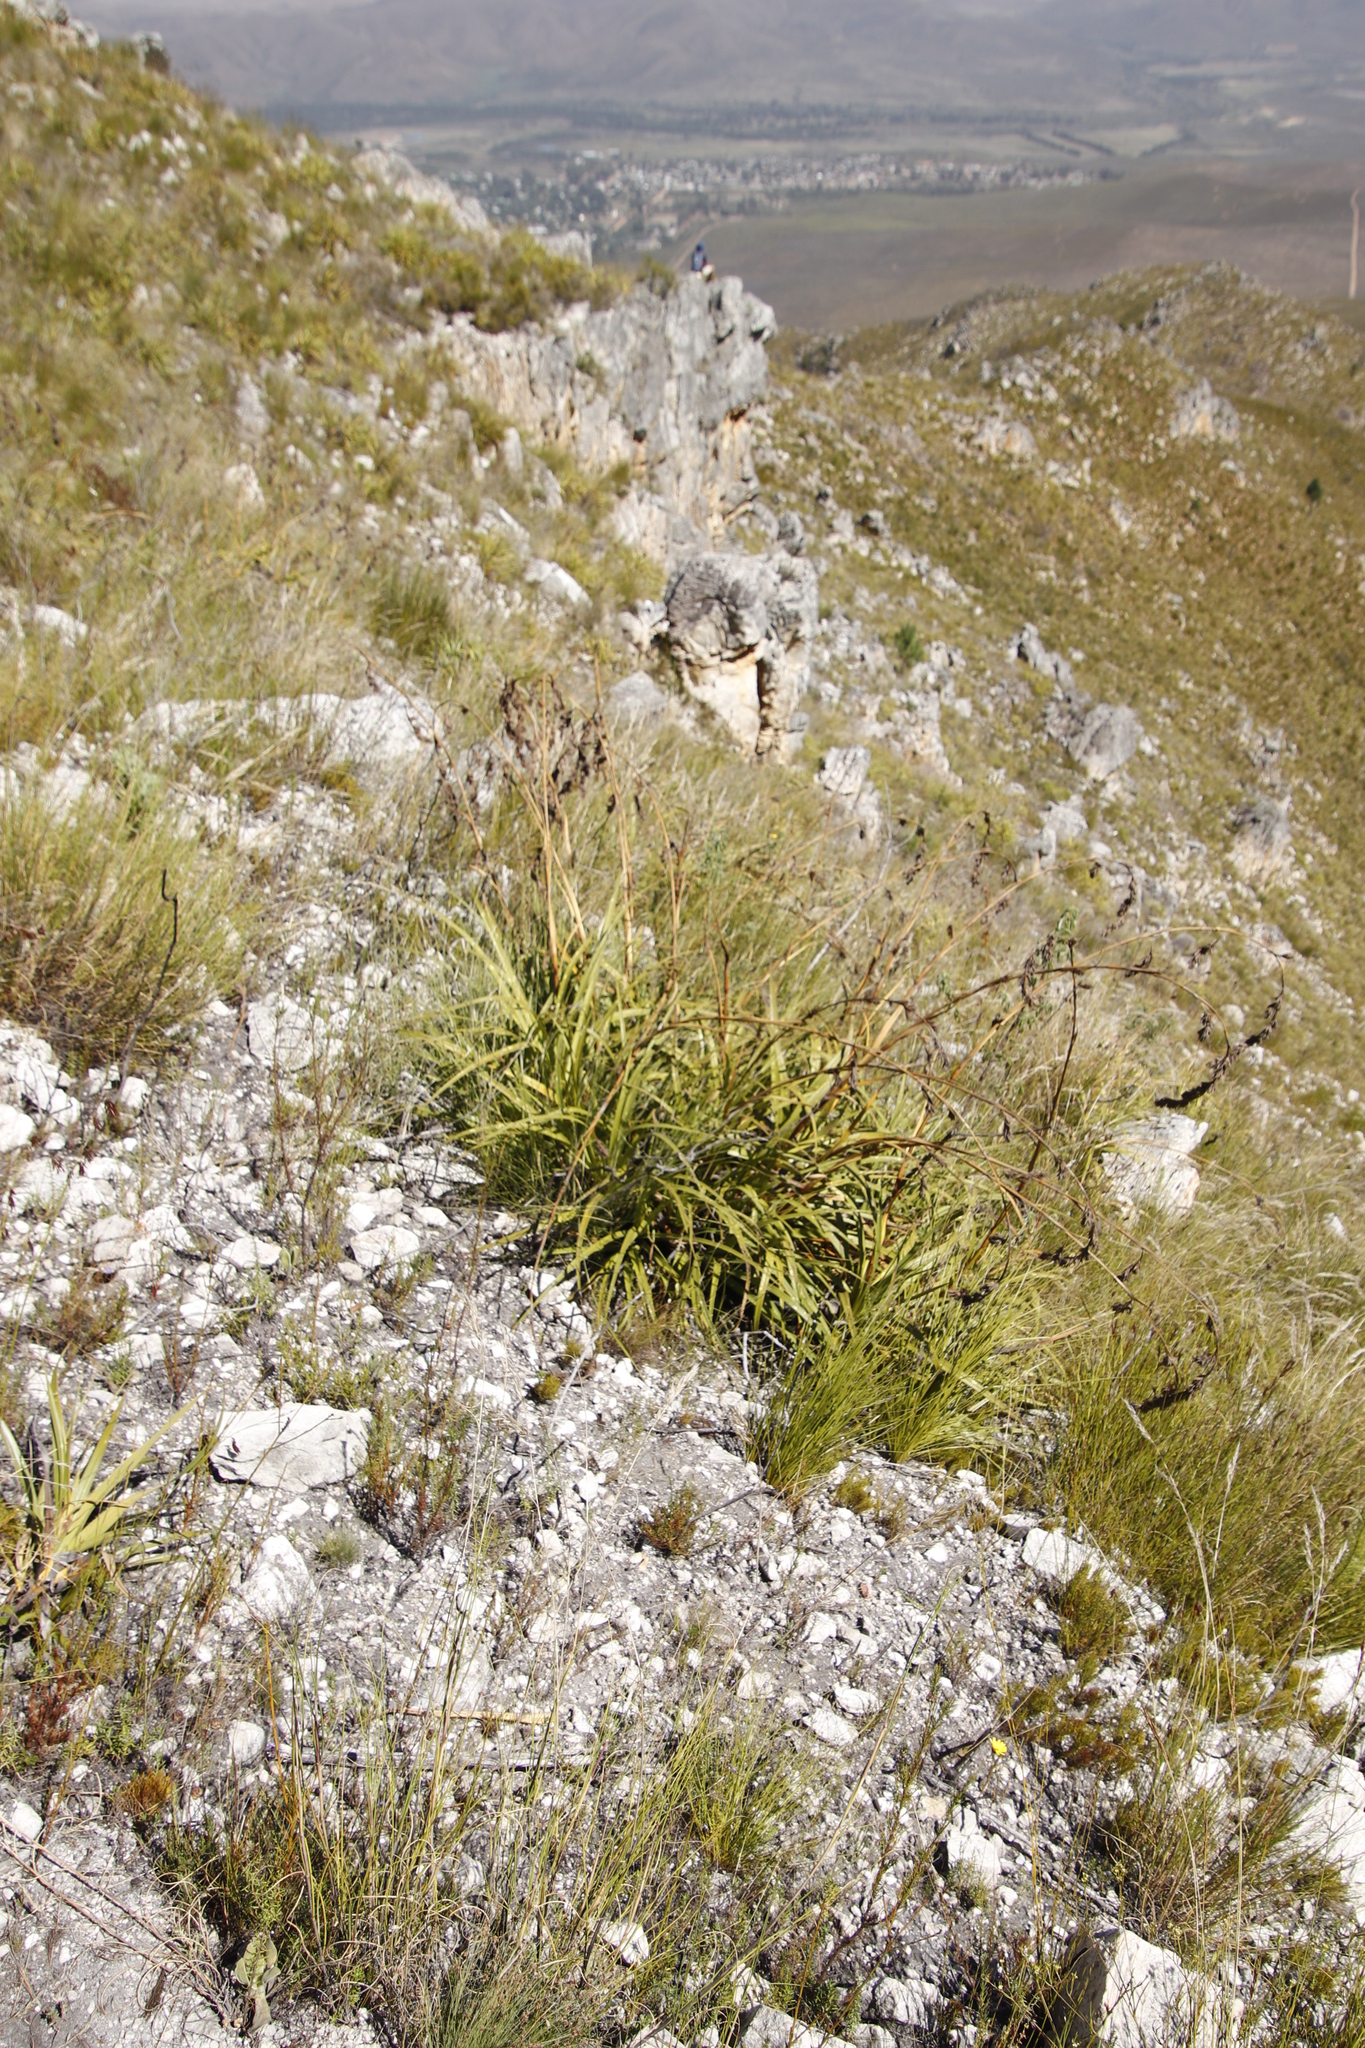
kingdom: Plantae
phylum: Tracheophyta
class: Liliopsida
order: Poales
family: Cyperaceae
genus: Tetraria
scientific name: Tetraria thermalis
